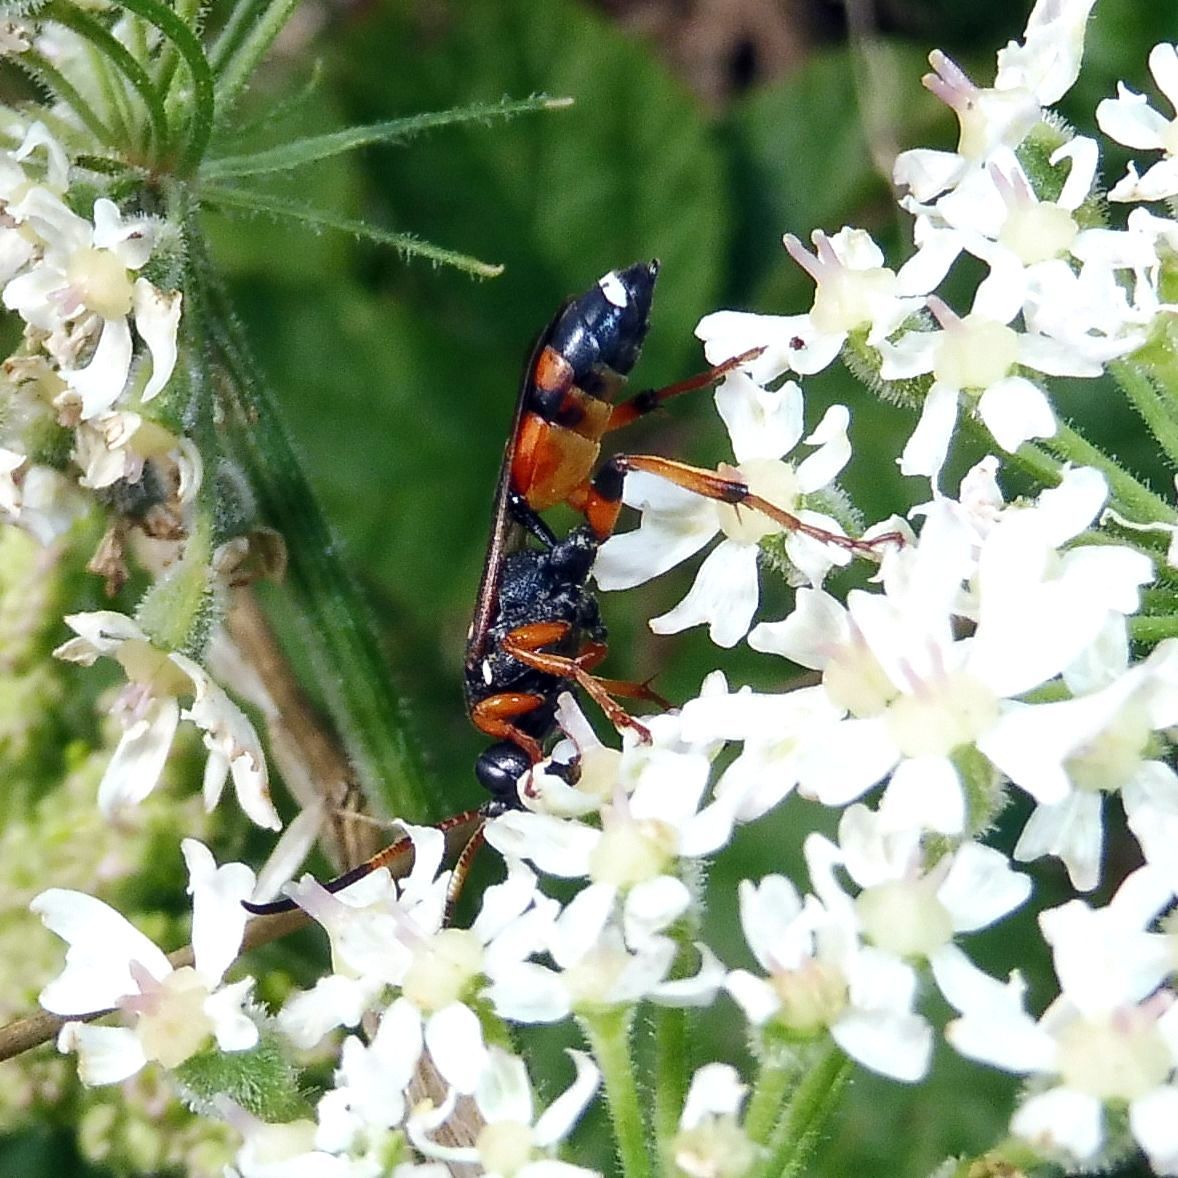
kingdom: Animalia
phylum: Arthropoda
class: Insecta
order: Hymenoptera
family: Ichneumonidae
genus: Ichneumon
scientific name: Ichneumon sarcitorius
